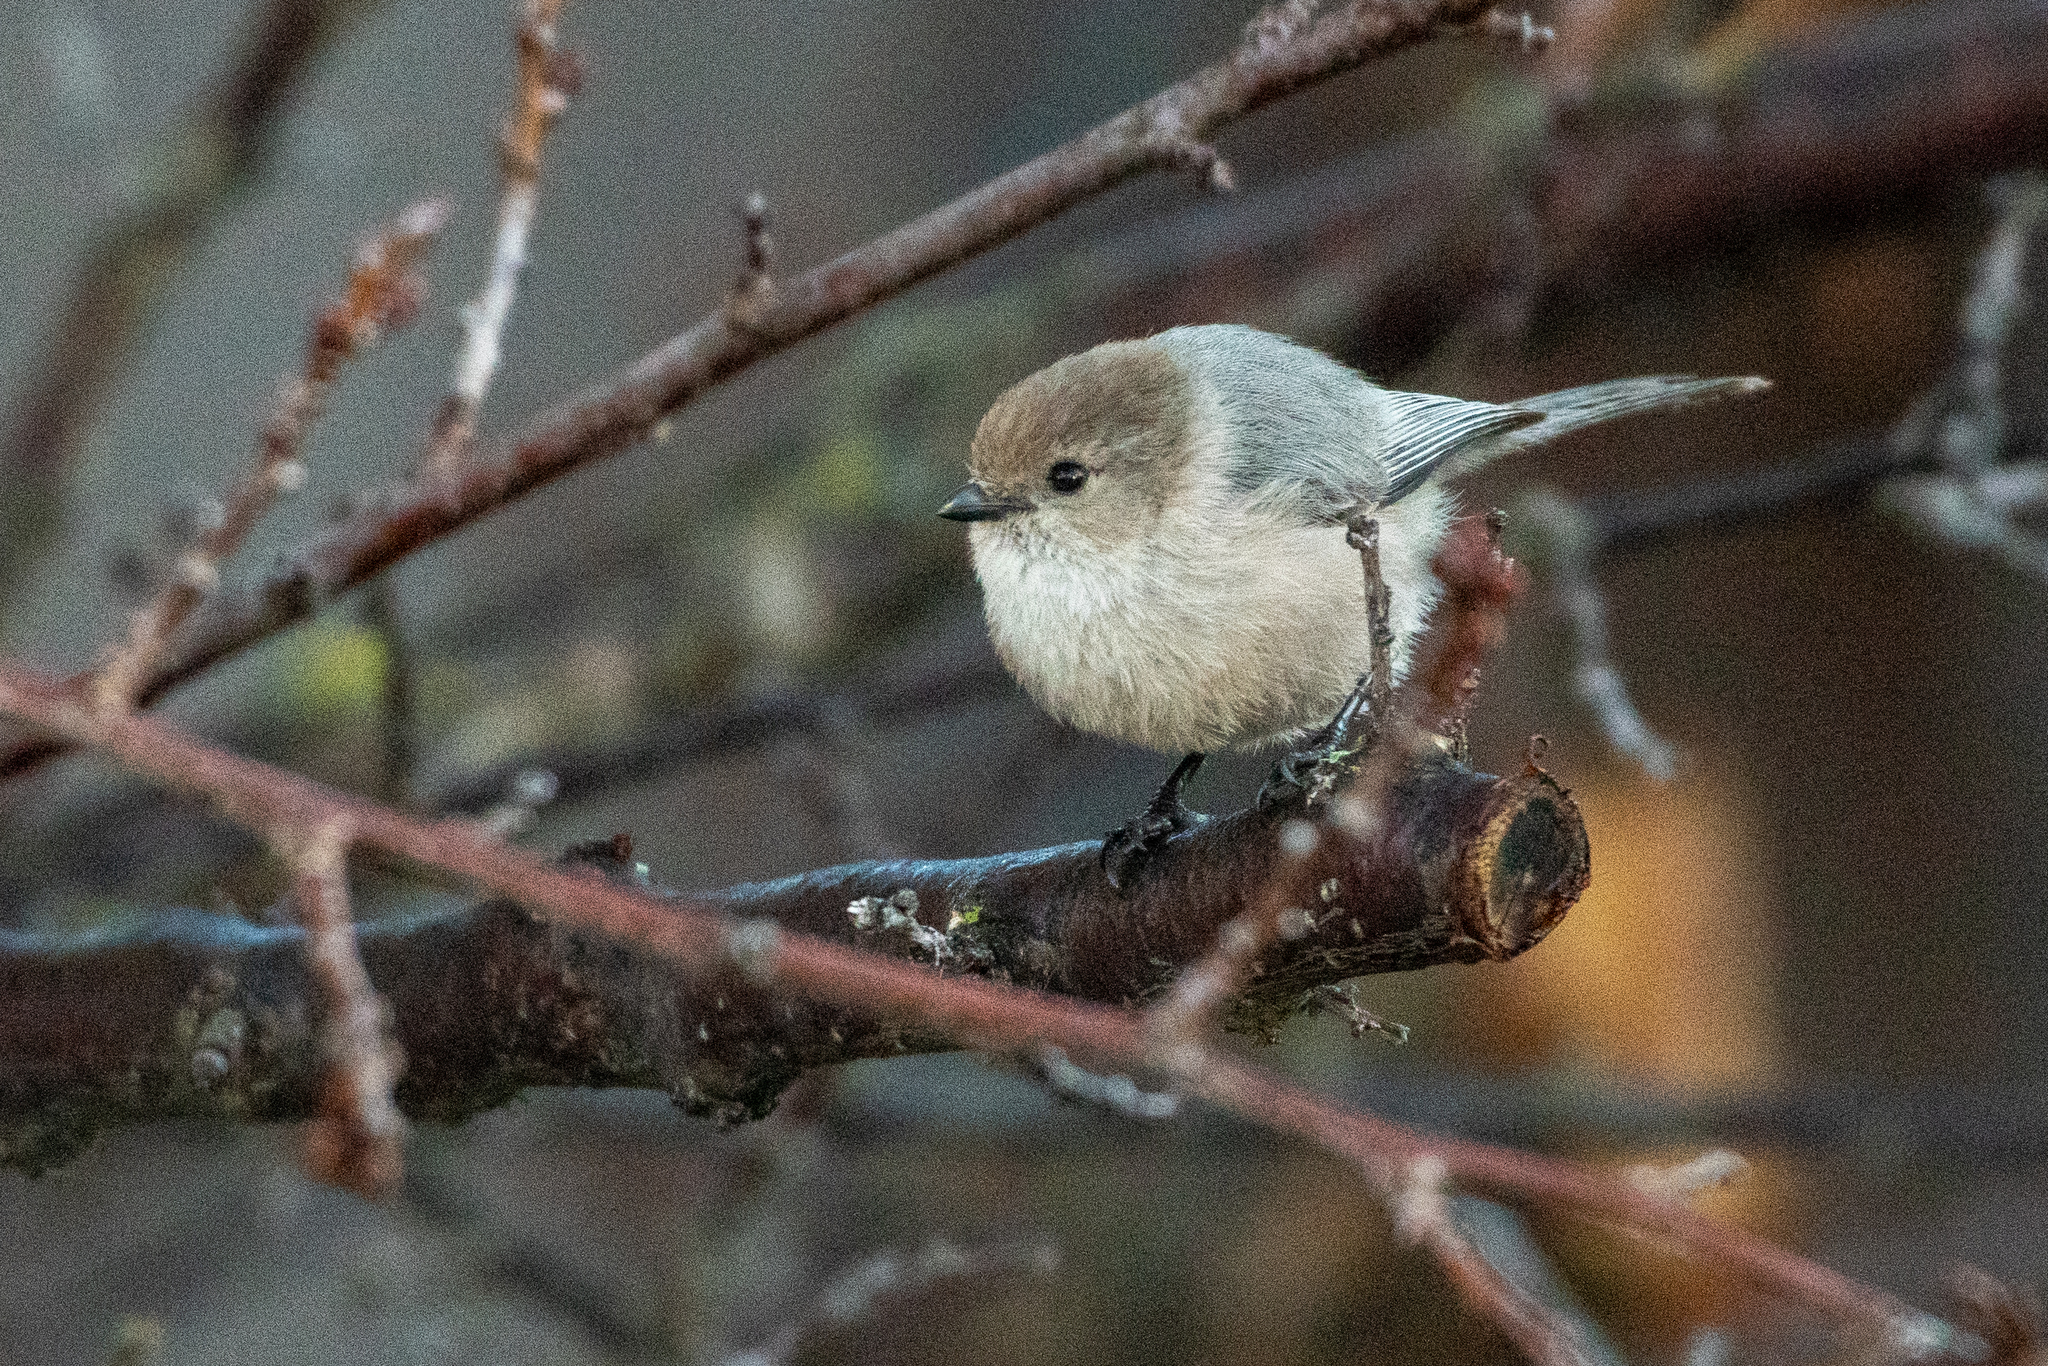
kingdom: Animalia
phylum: Chordata
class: Aves
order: Passeriformes
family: Aegithalidae
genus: Psaltriparus
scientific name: Psaltriparus minimus
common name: American bushtit
